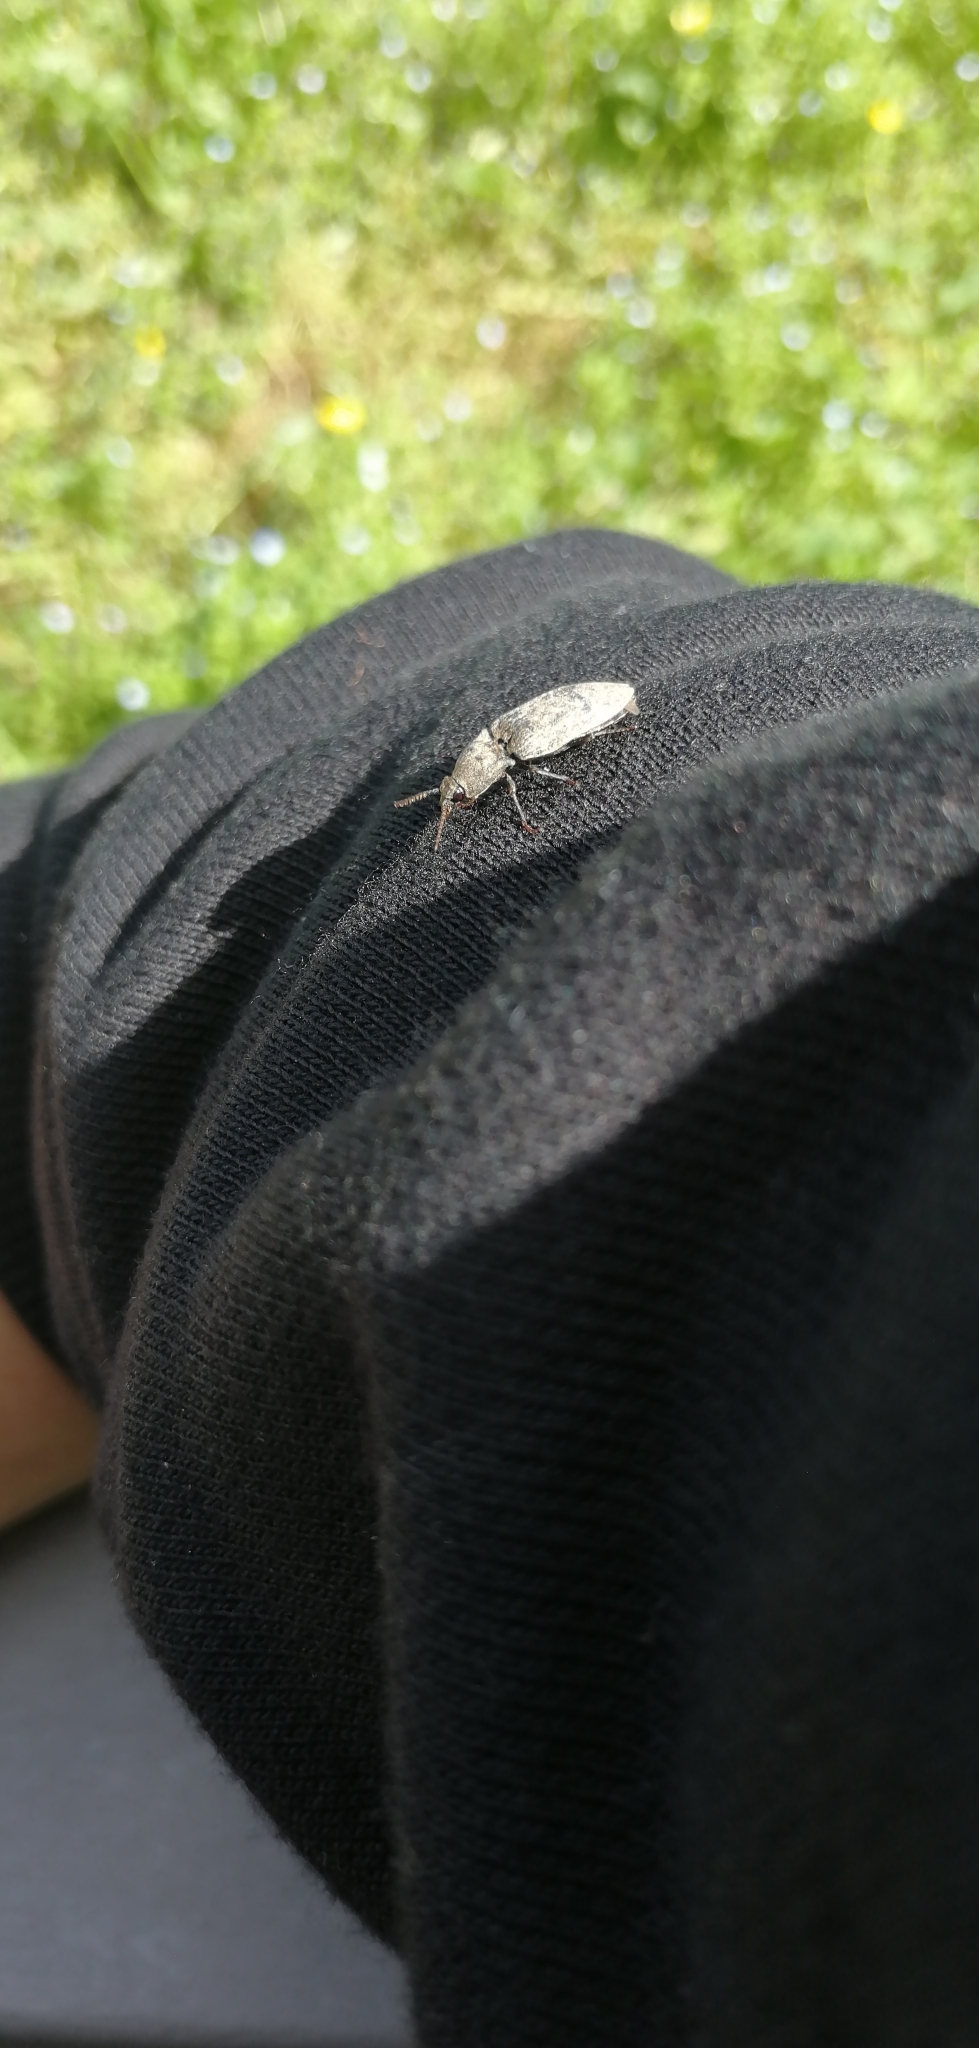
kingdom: Animalia
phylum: Arthropoda
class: Insecta
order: Coleoptera
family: Elateridae
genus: Agrypnus
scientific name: Agrypnus murinus
